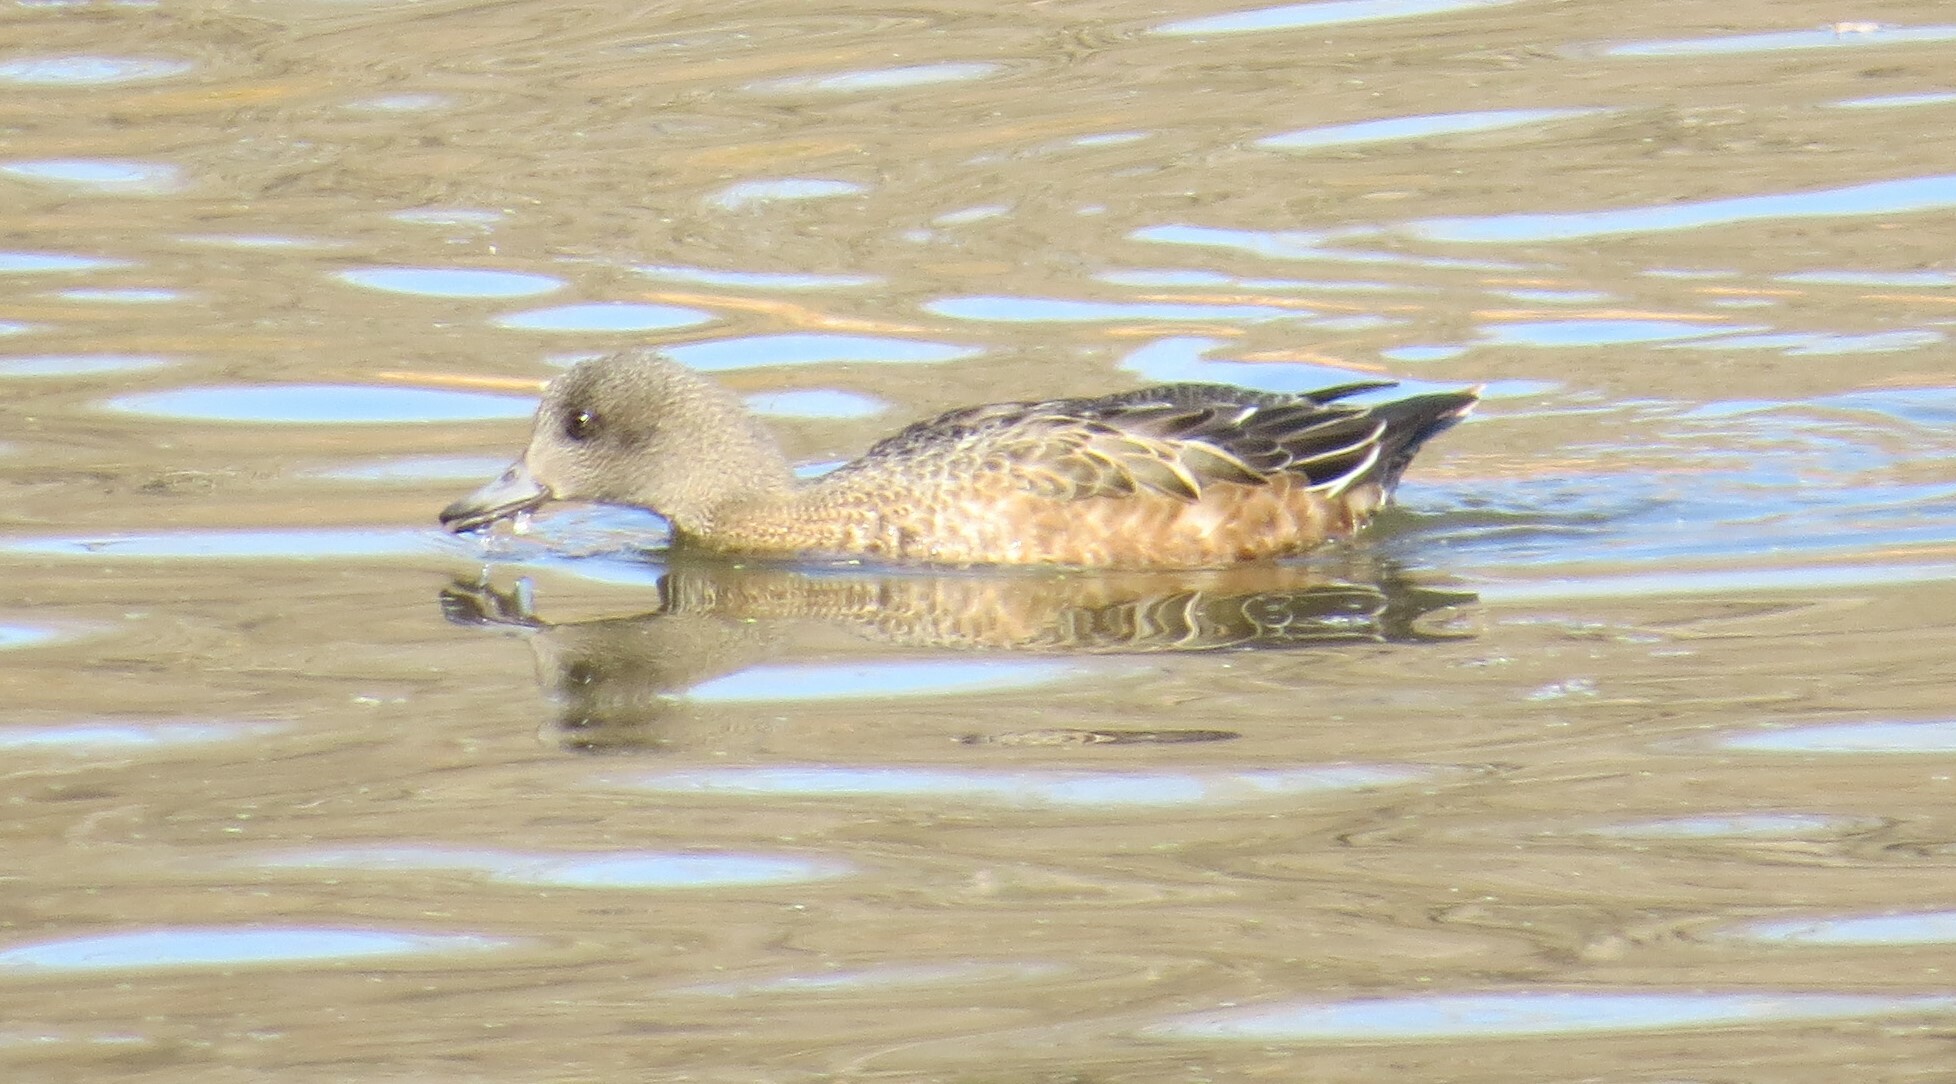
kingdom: Animalia
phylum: Chordata
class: Aves
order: Anseriformes
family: Anatidae
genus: Mareca
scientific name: Mareca americana
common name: American wigeon
